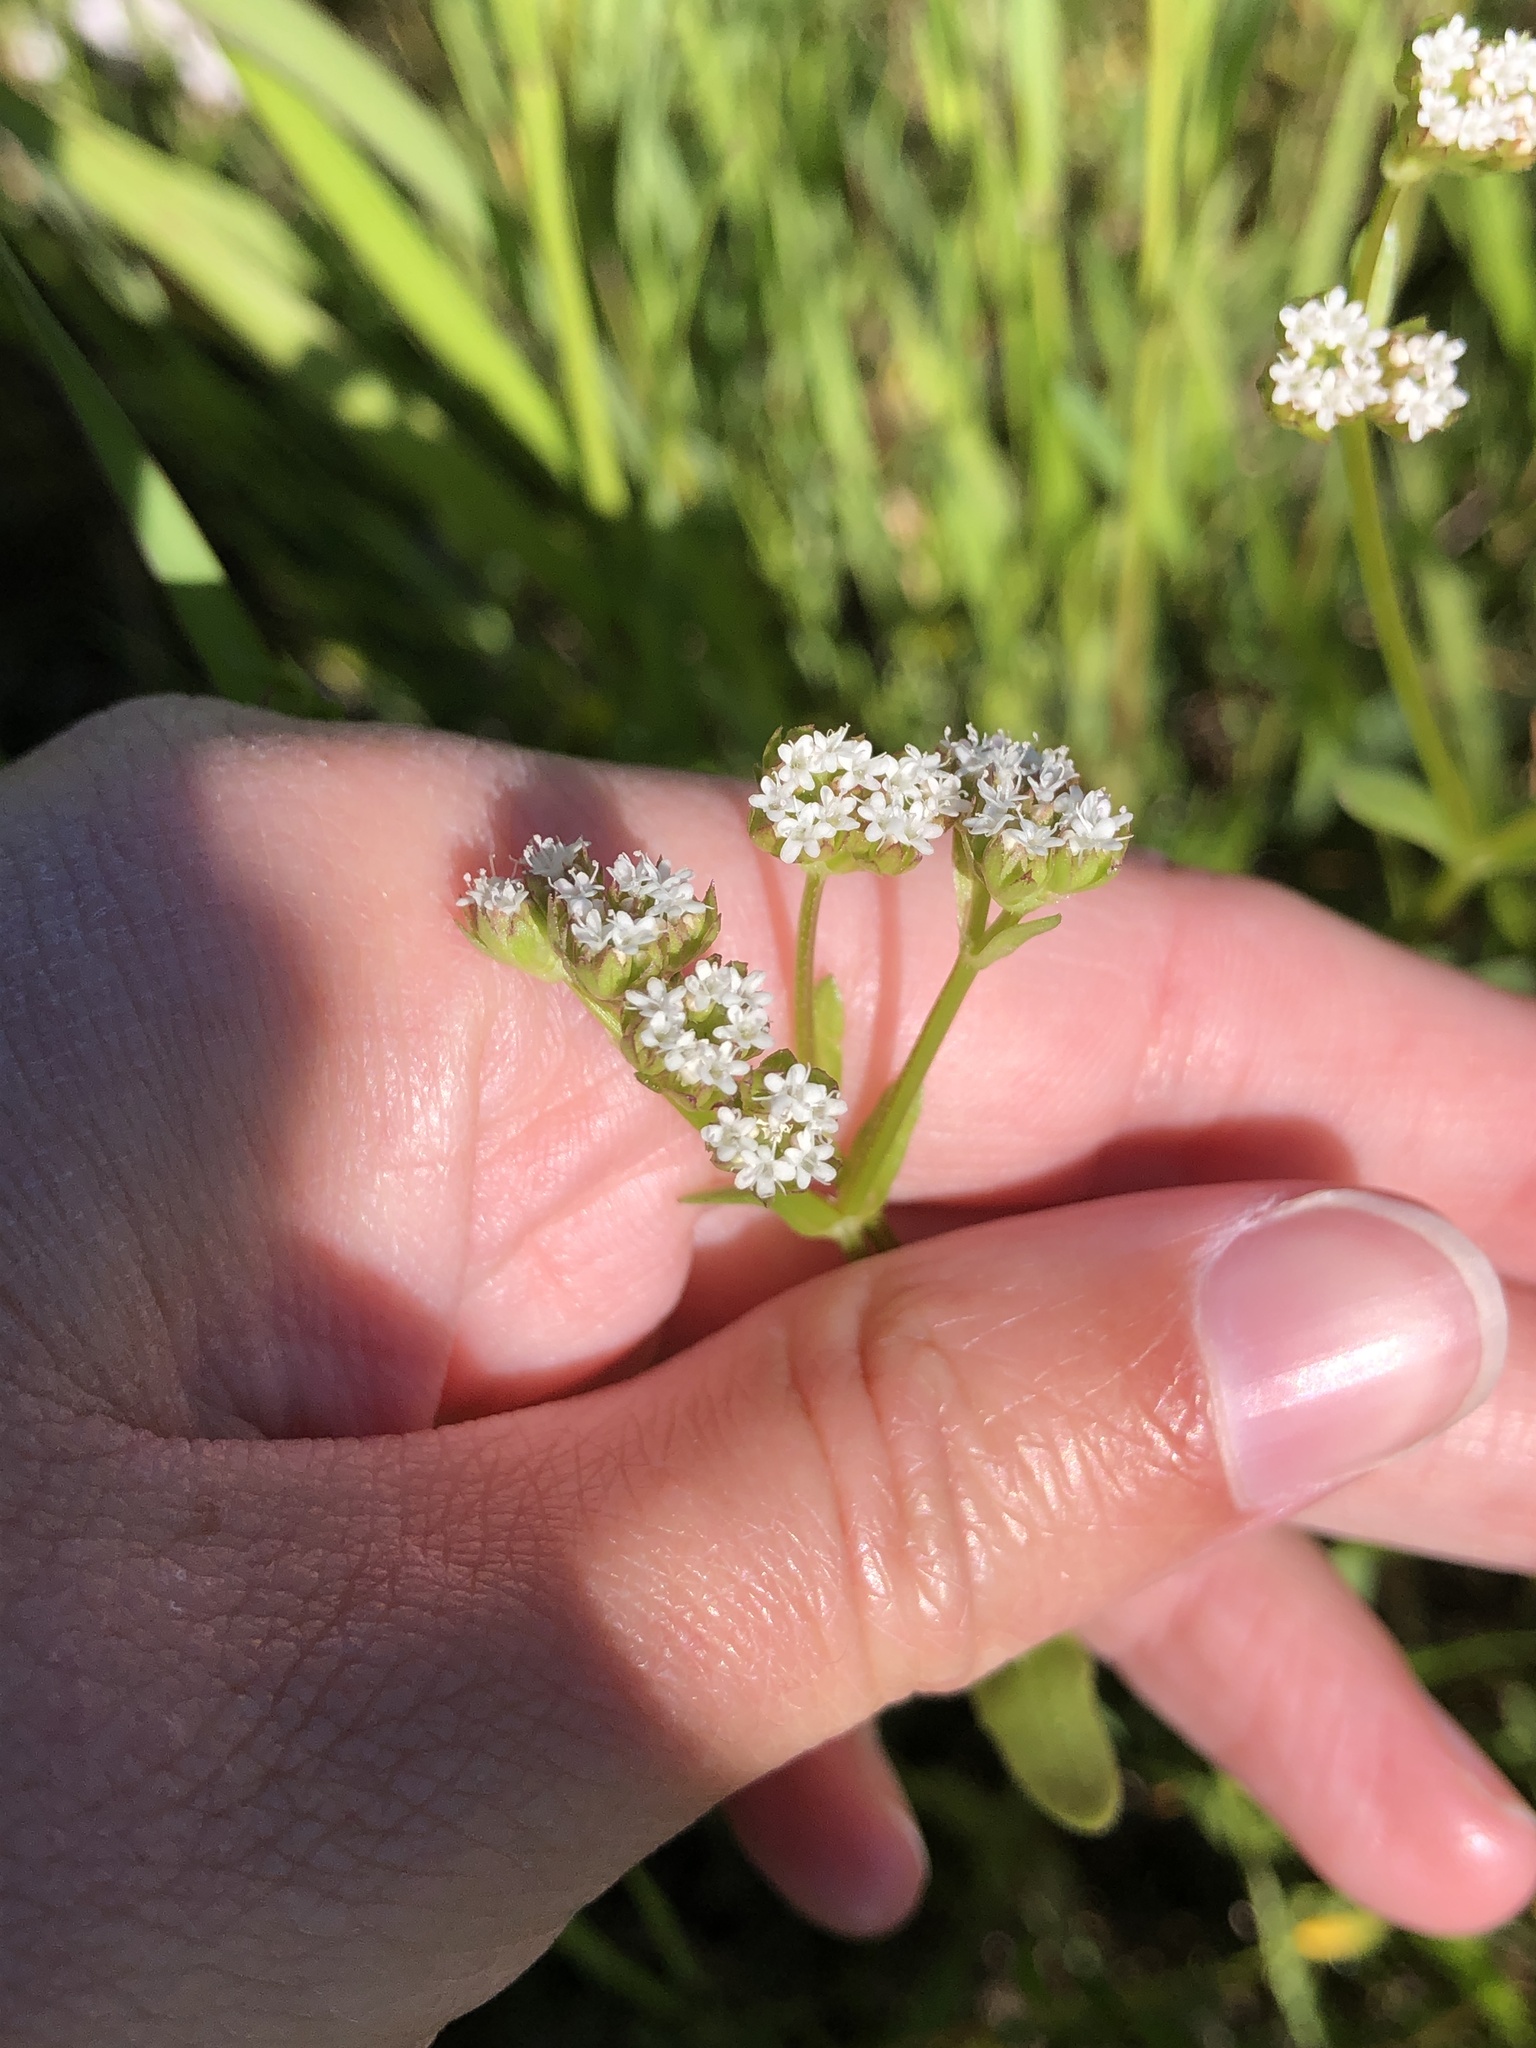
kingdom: Plantae
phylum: Tracheophyta
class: Magnoliopsida
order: Dipsacales
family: Caprifoliaceae
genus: Valerianella
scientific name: Valerianella radiata
